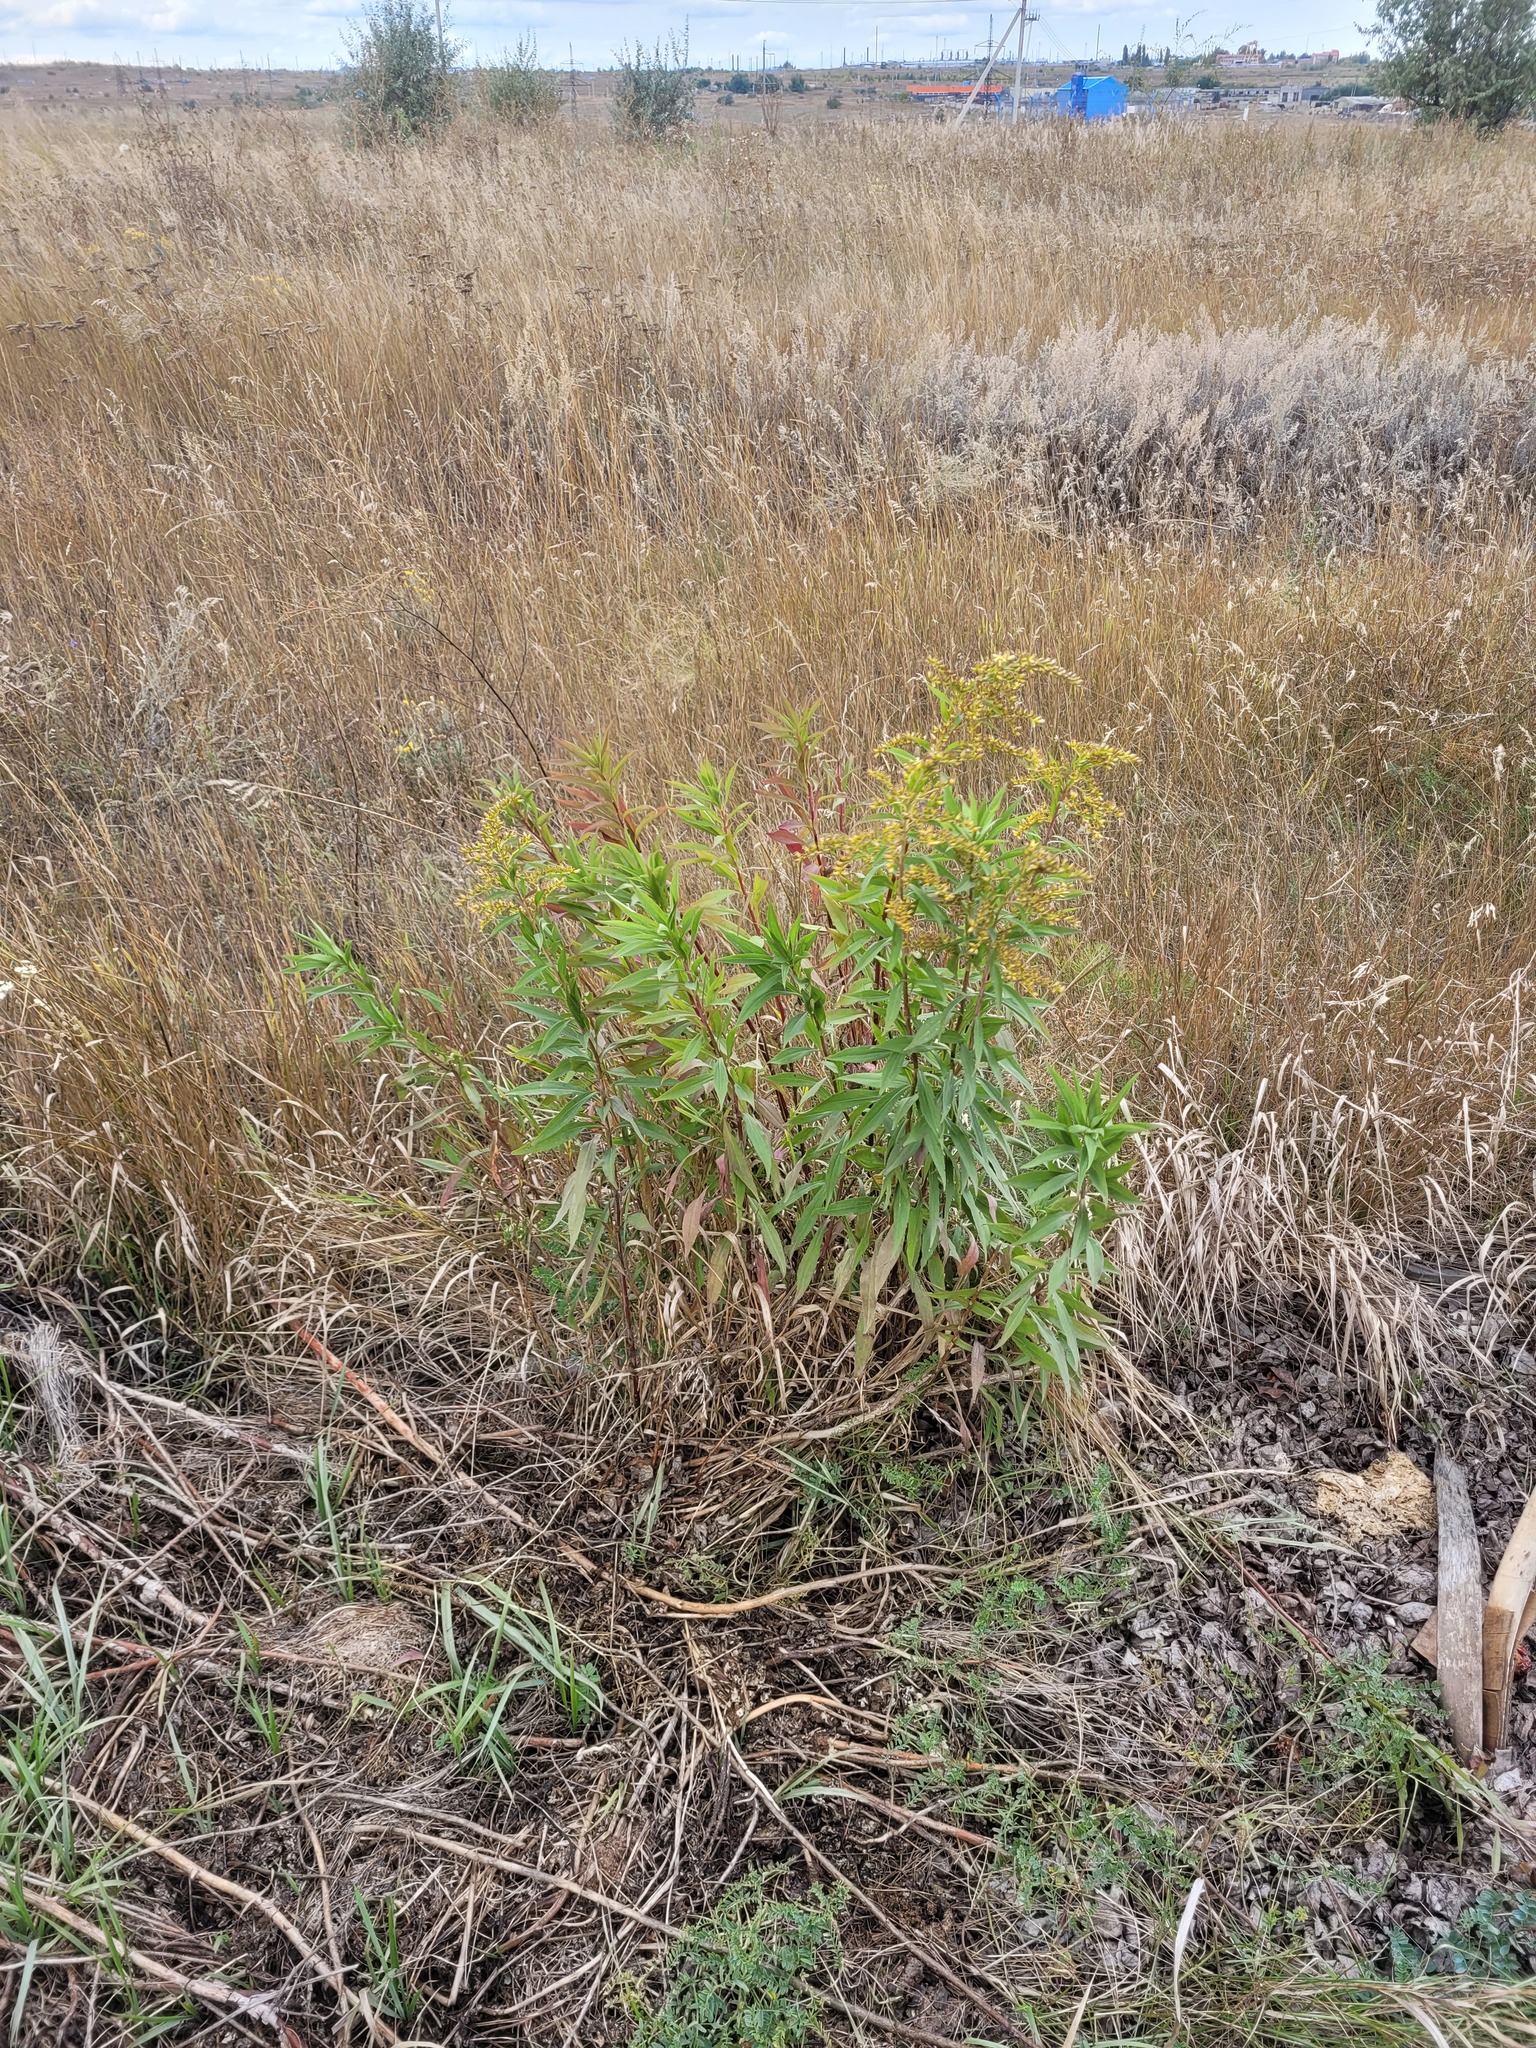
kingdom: Plantae
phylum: Tracheophyta
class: Magnoliopsida
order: Asterales
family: Asteraceae
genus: Solidago
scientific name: Solidago gigantea
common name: Giant goldenrod
